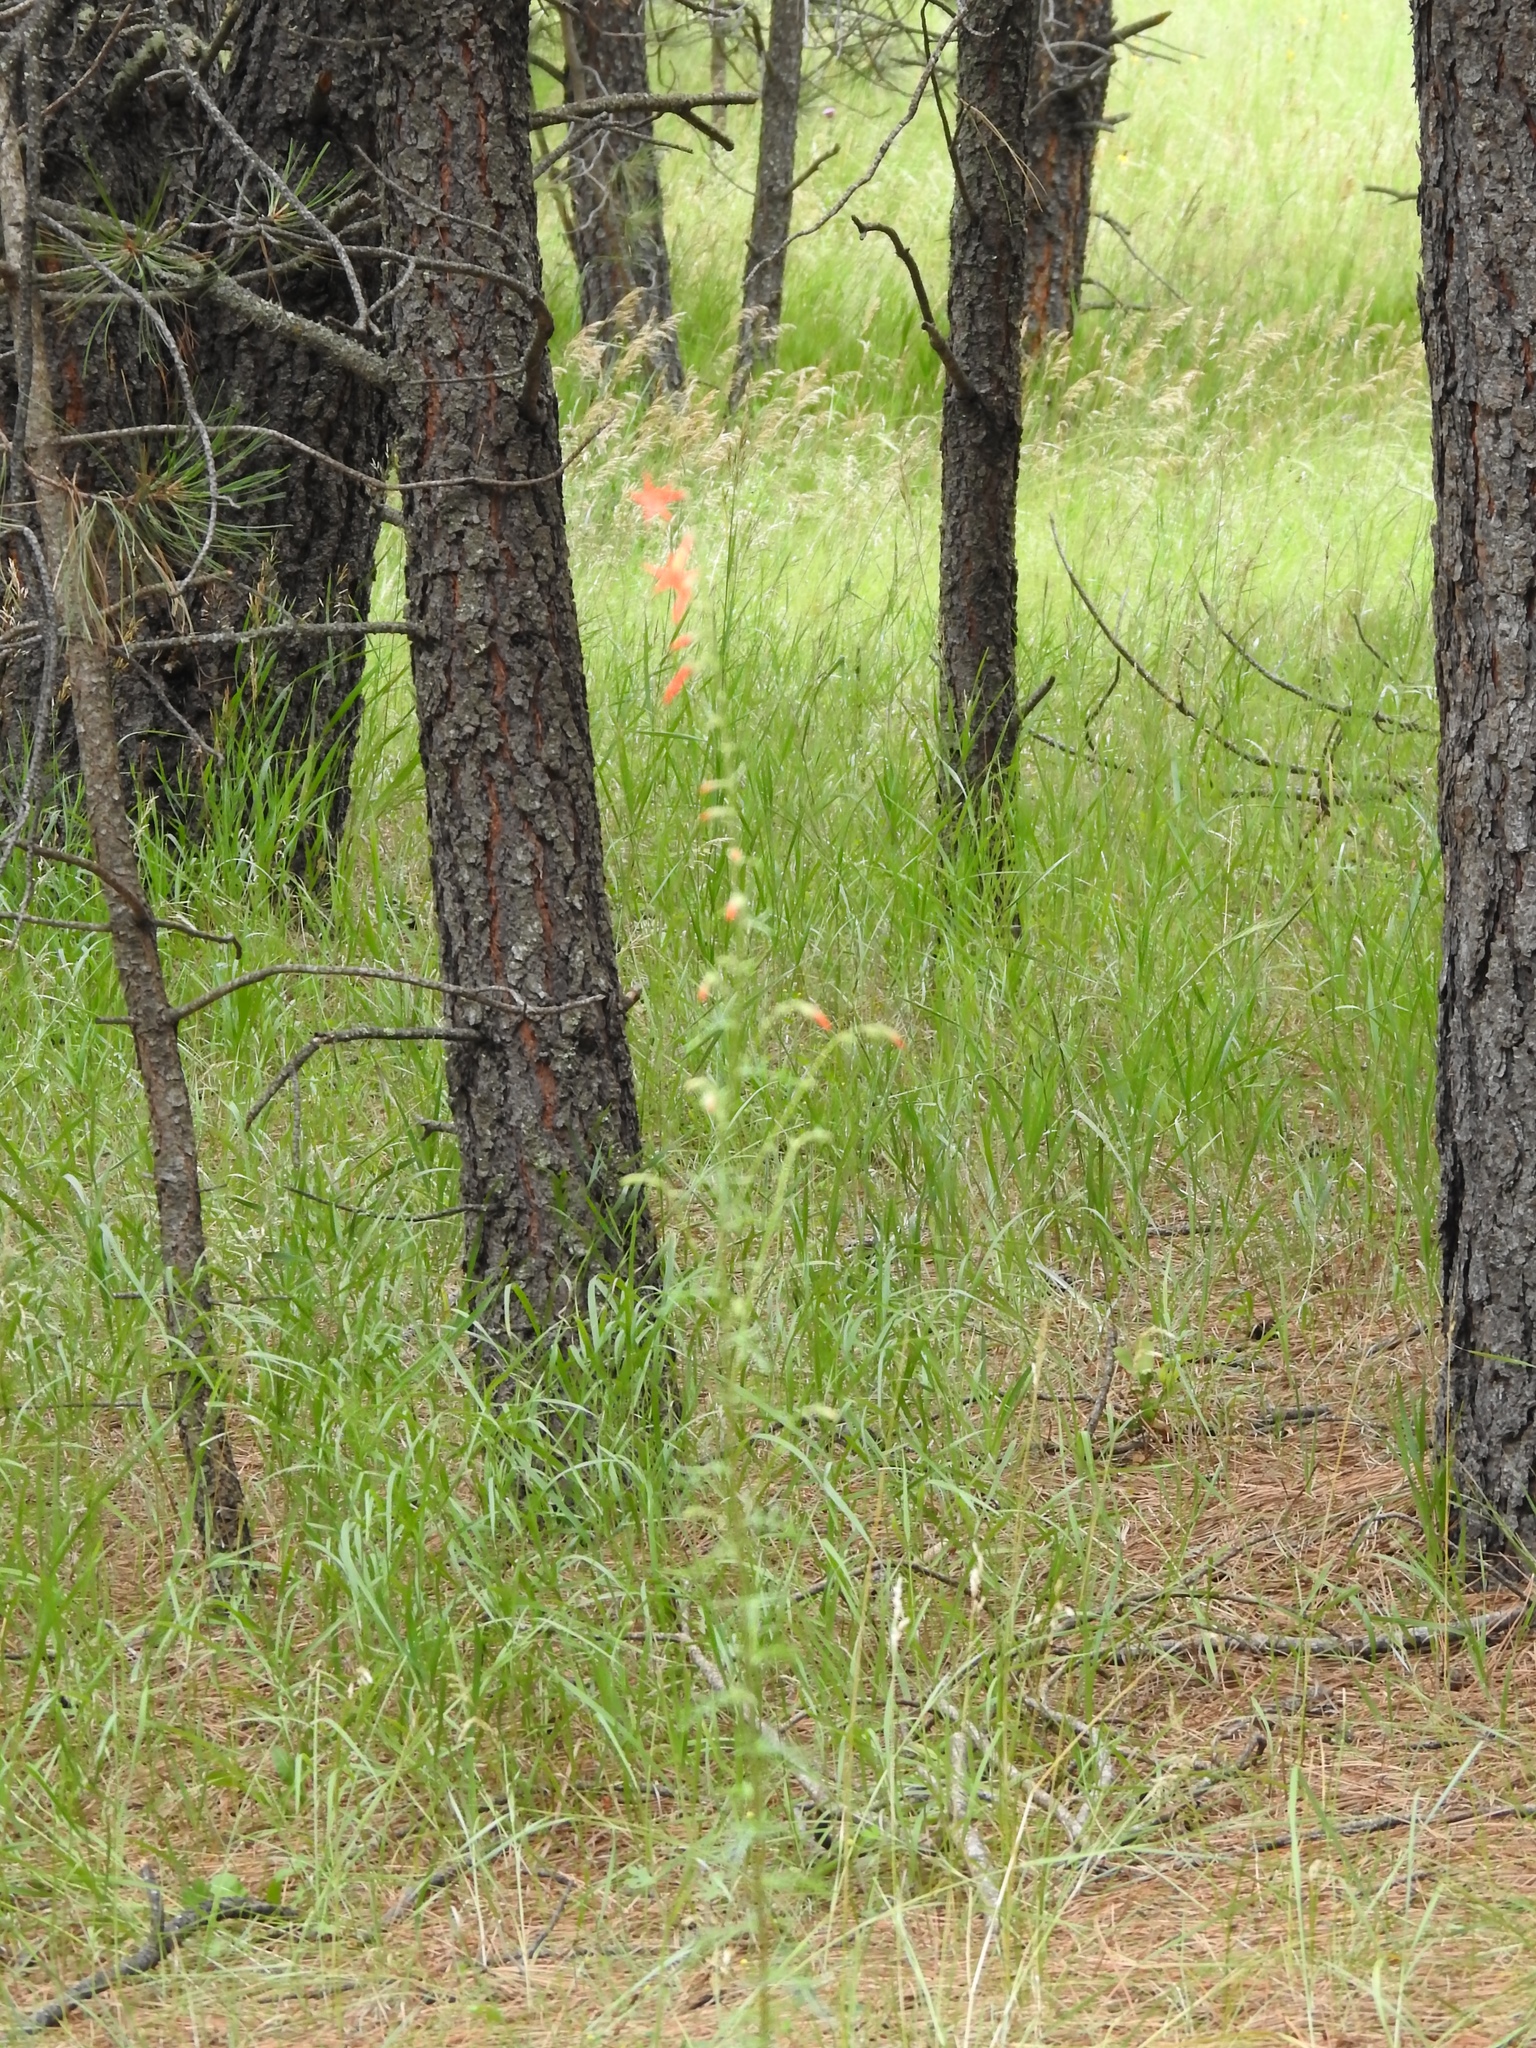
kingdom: Plantae
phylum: Tracheophyta
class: Magnoliopsida
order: Ericales
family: Polemoniaceae
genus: Ipomopsis
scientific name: Ipomopsis aggregata
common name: Scarlet gilia
